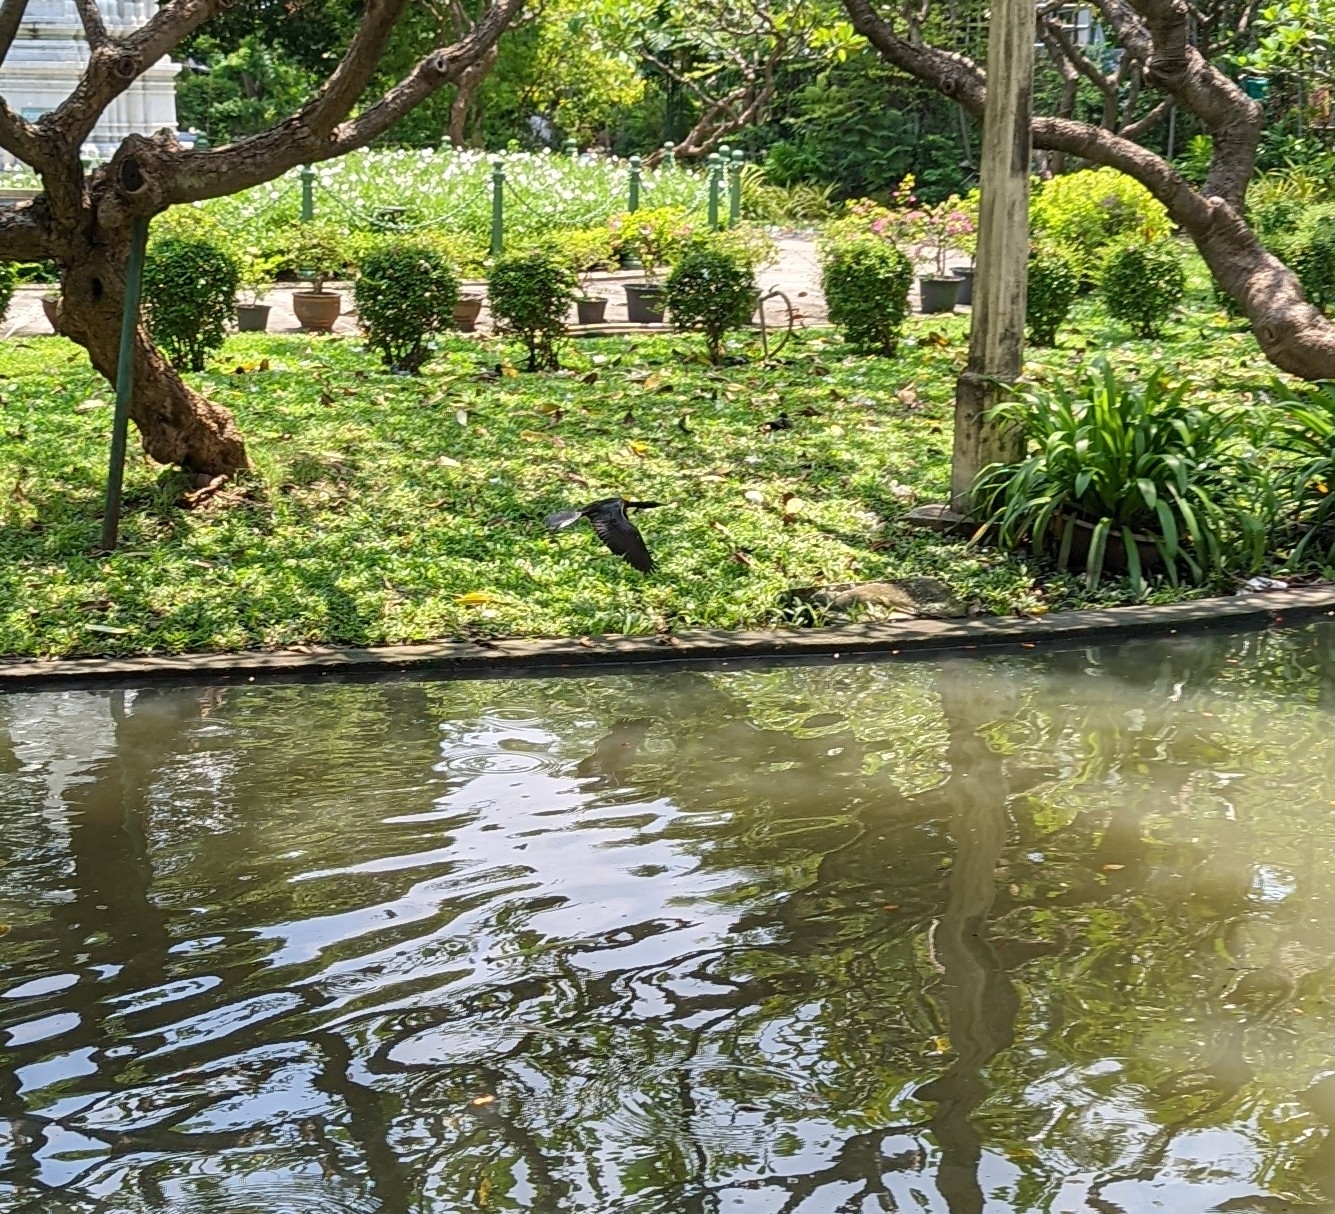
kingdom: Animalia
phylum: Chordata
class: Aves
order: Suliformes
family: Phalacrocoracidae
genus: Phalacrocorax
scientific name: Phalacrocorax fuscicollis
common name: Indian cormorant
